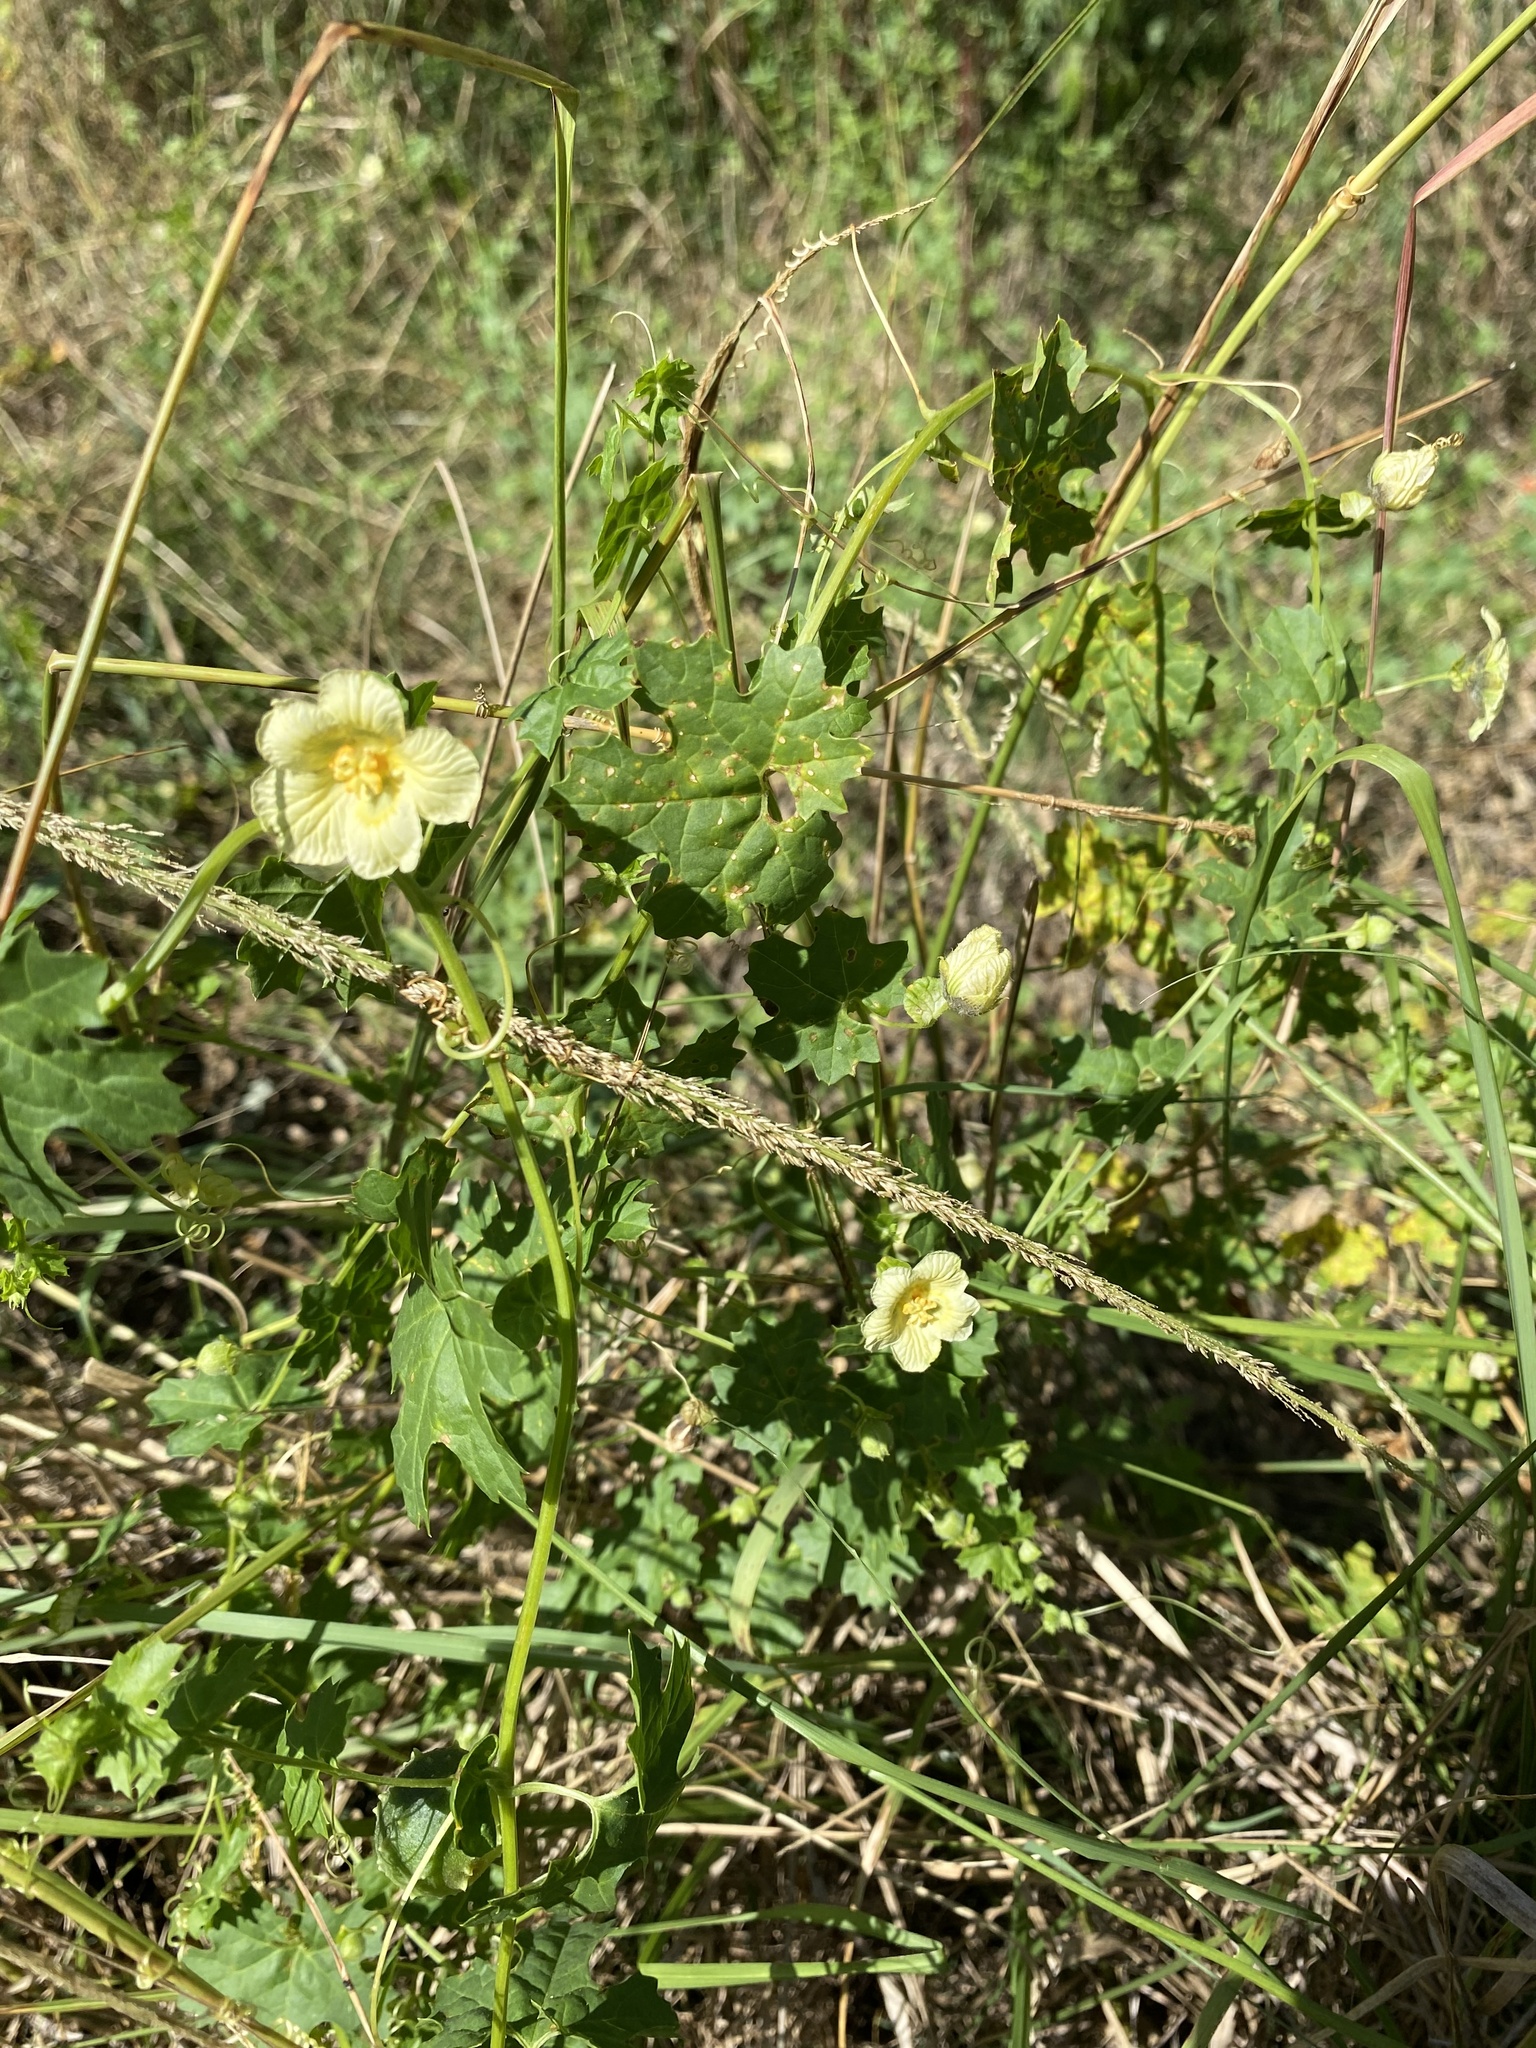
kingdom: Plantae
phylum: Tracheophyta
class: Magnoliopsida
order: Cucurbitales
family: Cucurbitaceae
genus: Momordica
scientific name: Momordica balsamina
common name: Southern balsampear
